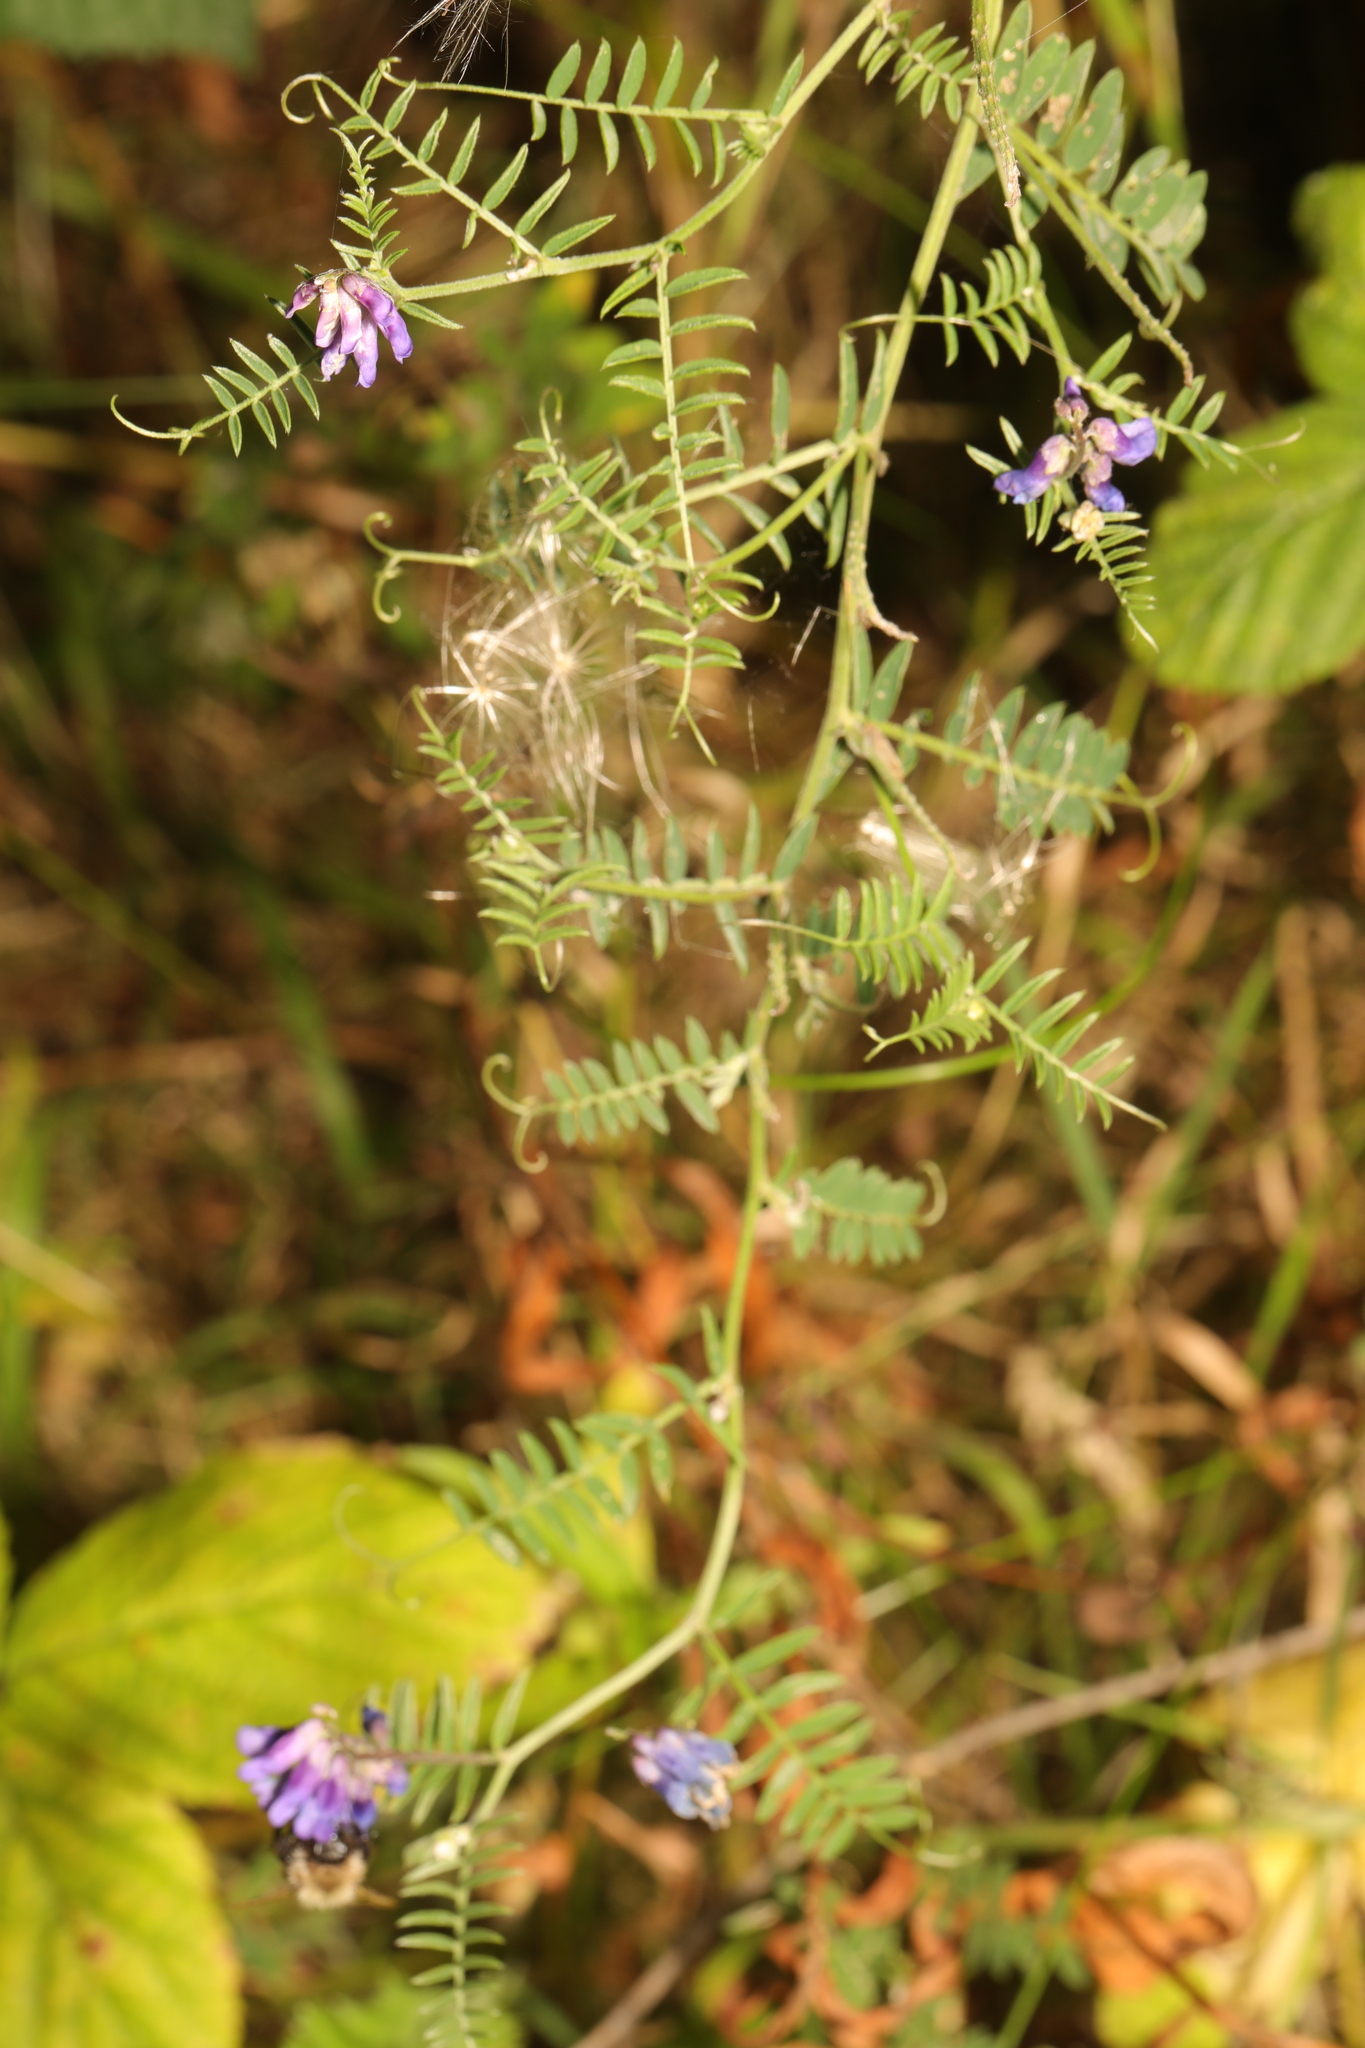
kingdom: Plantae
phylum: Tracheophyta
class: Magnoliopsida
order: Fabales
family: Fabaceae
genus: Vicia
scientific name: Vicia cracca
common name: Bird vetch
